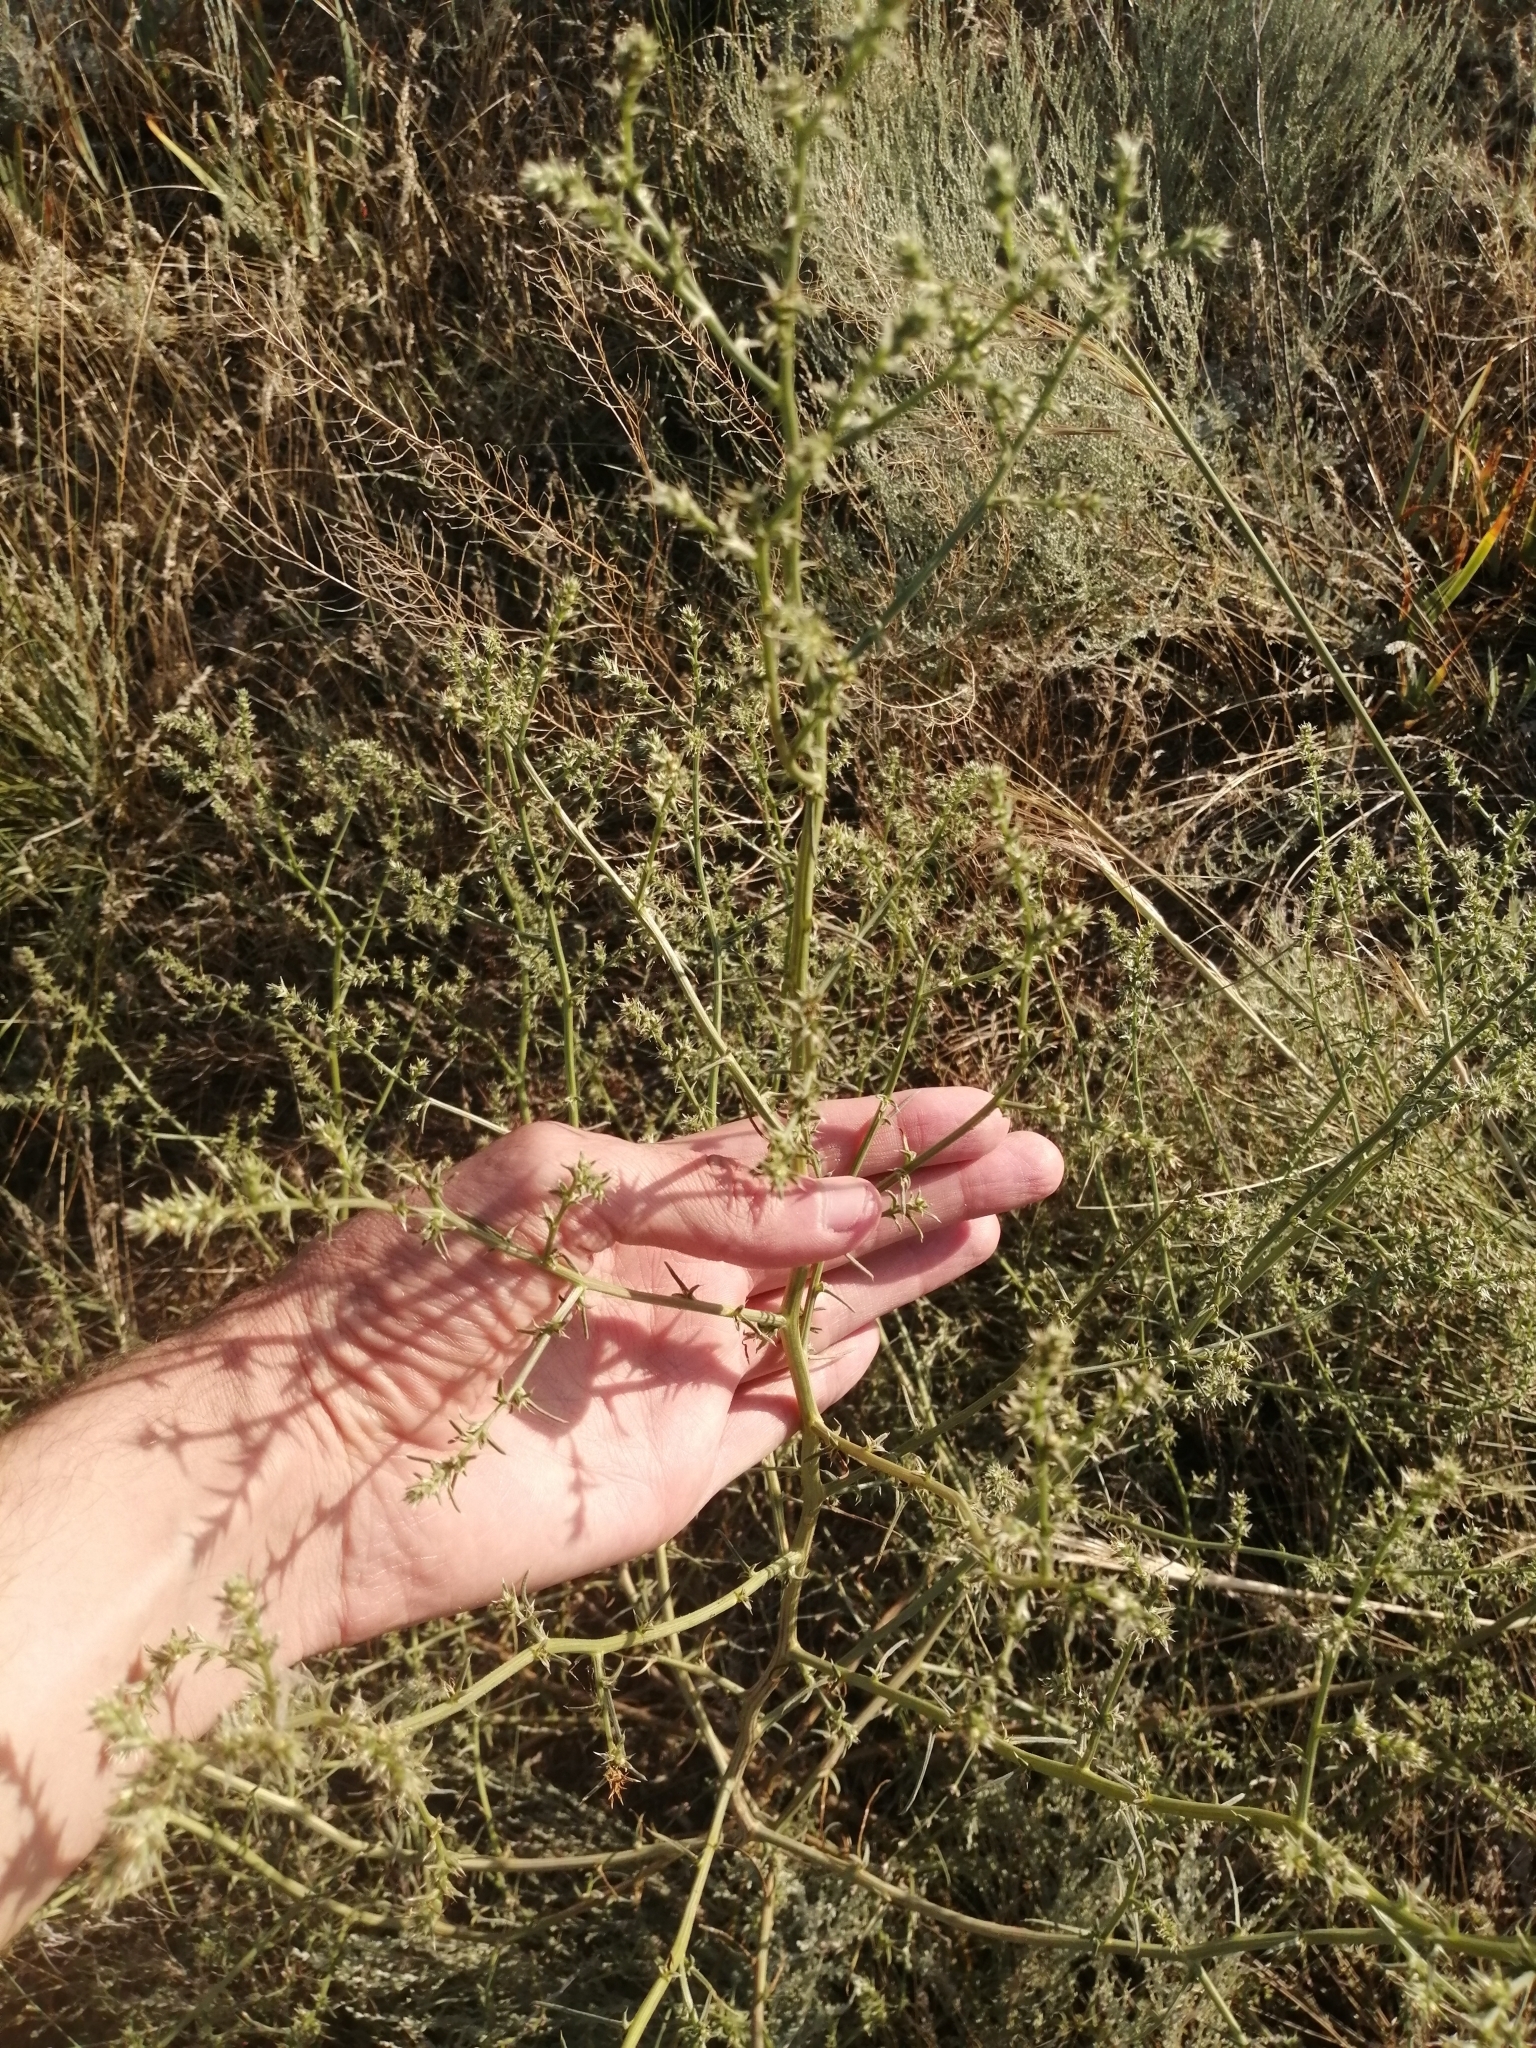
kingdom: Plantae
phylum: Tracheophyta
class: Magnoliopsida
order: Caryophyllales
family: Amaranthaceae
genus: Salsola
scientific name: Salsola tragus
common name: Prickly russian thistle
